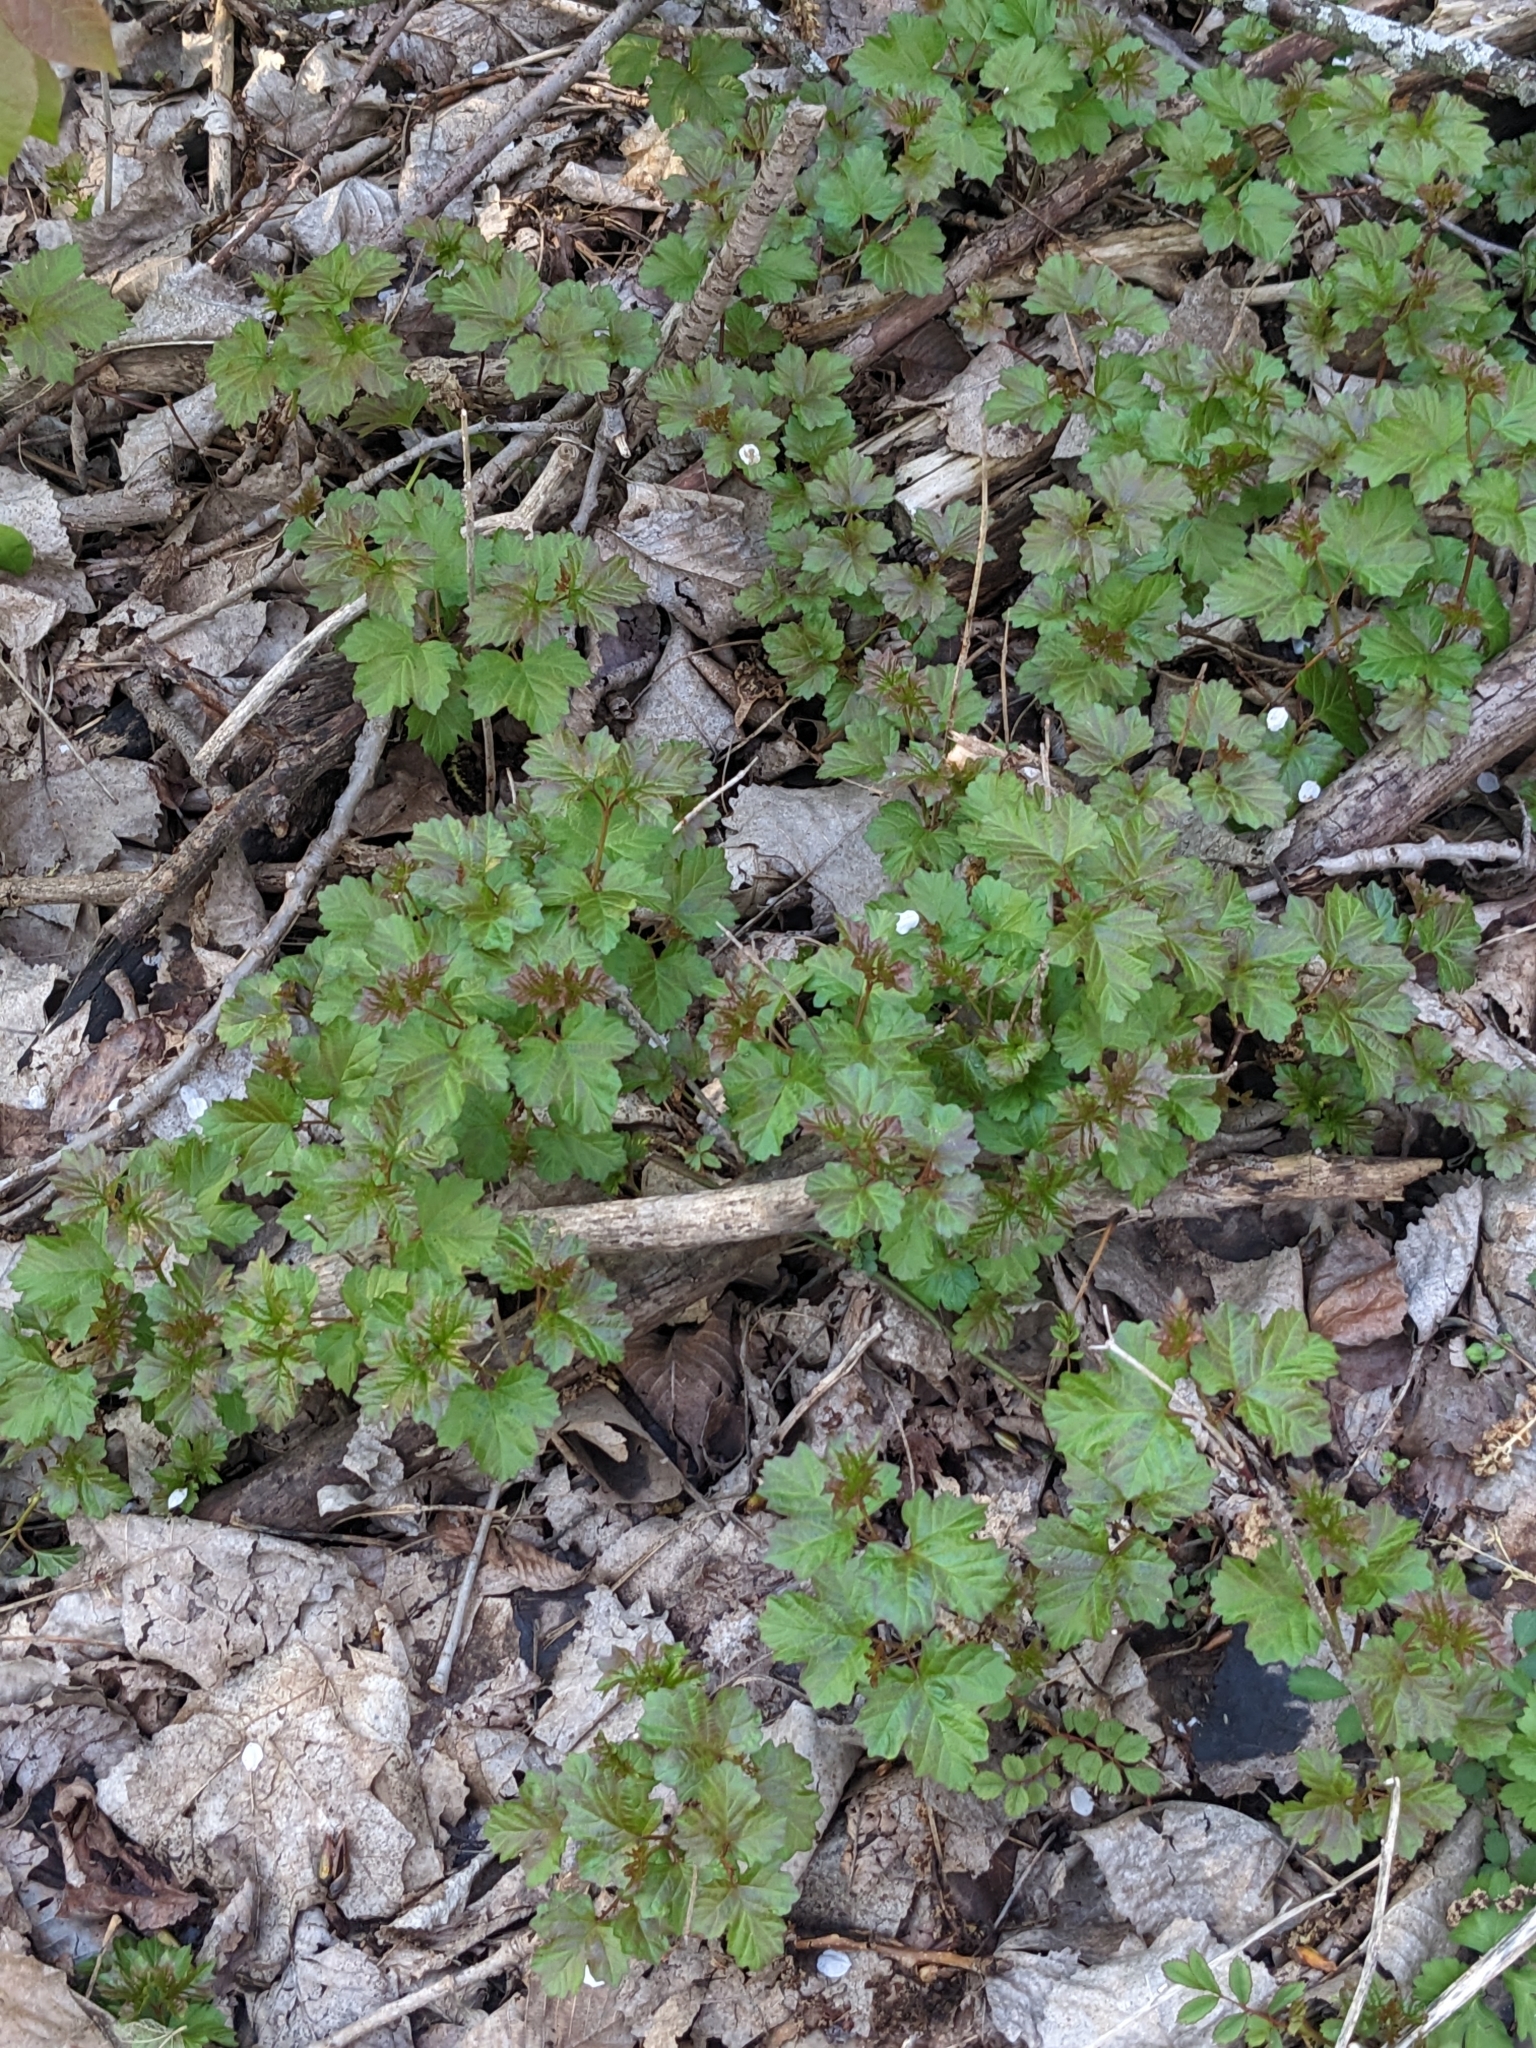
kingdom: Plantae
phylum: Tracheophyta
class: Magnoliopsida
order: Dipsacales
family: Viburnaceae
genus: Viburnum
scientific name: Viburnum opulus
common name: Guelder-rose
